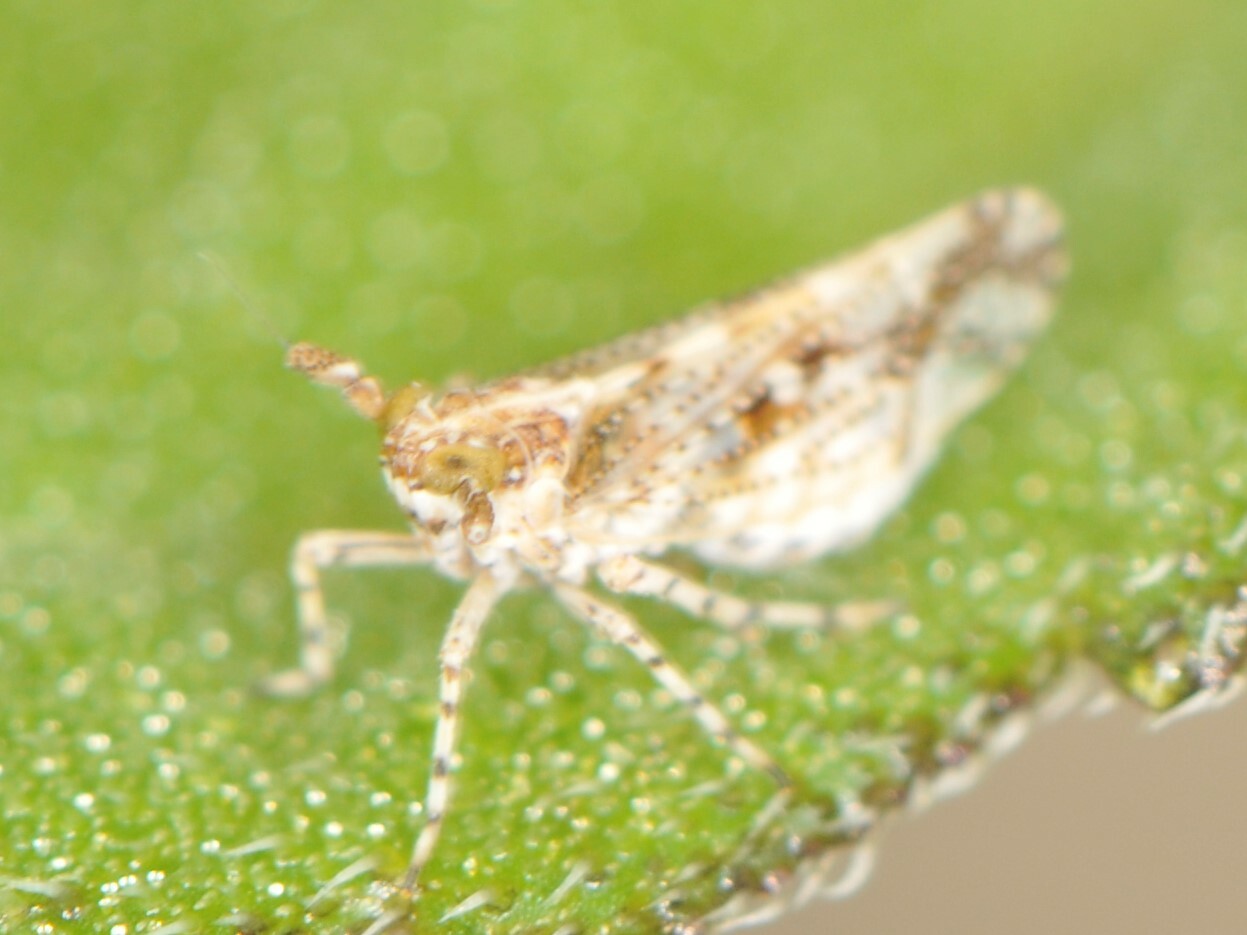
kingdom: Animalia
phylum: Arthropoda
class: Insecta
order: Hemiptera
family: Delphacidae
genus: Stobaera
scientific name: Stobaera
